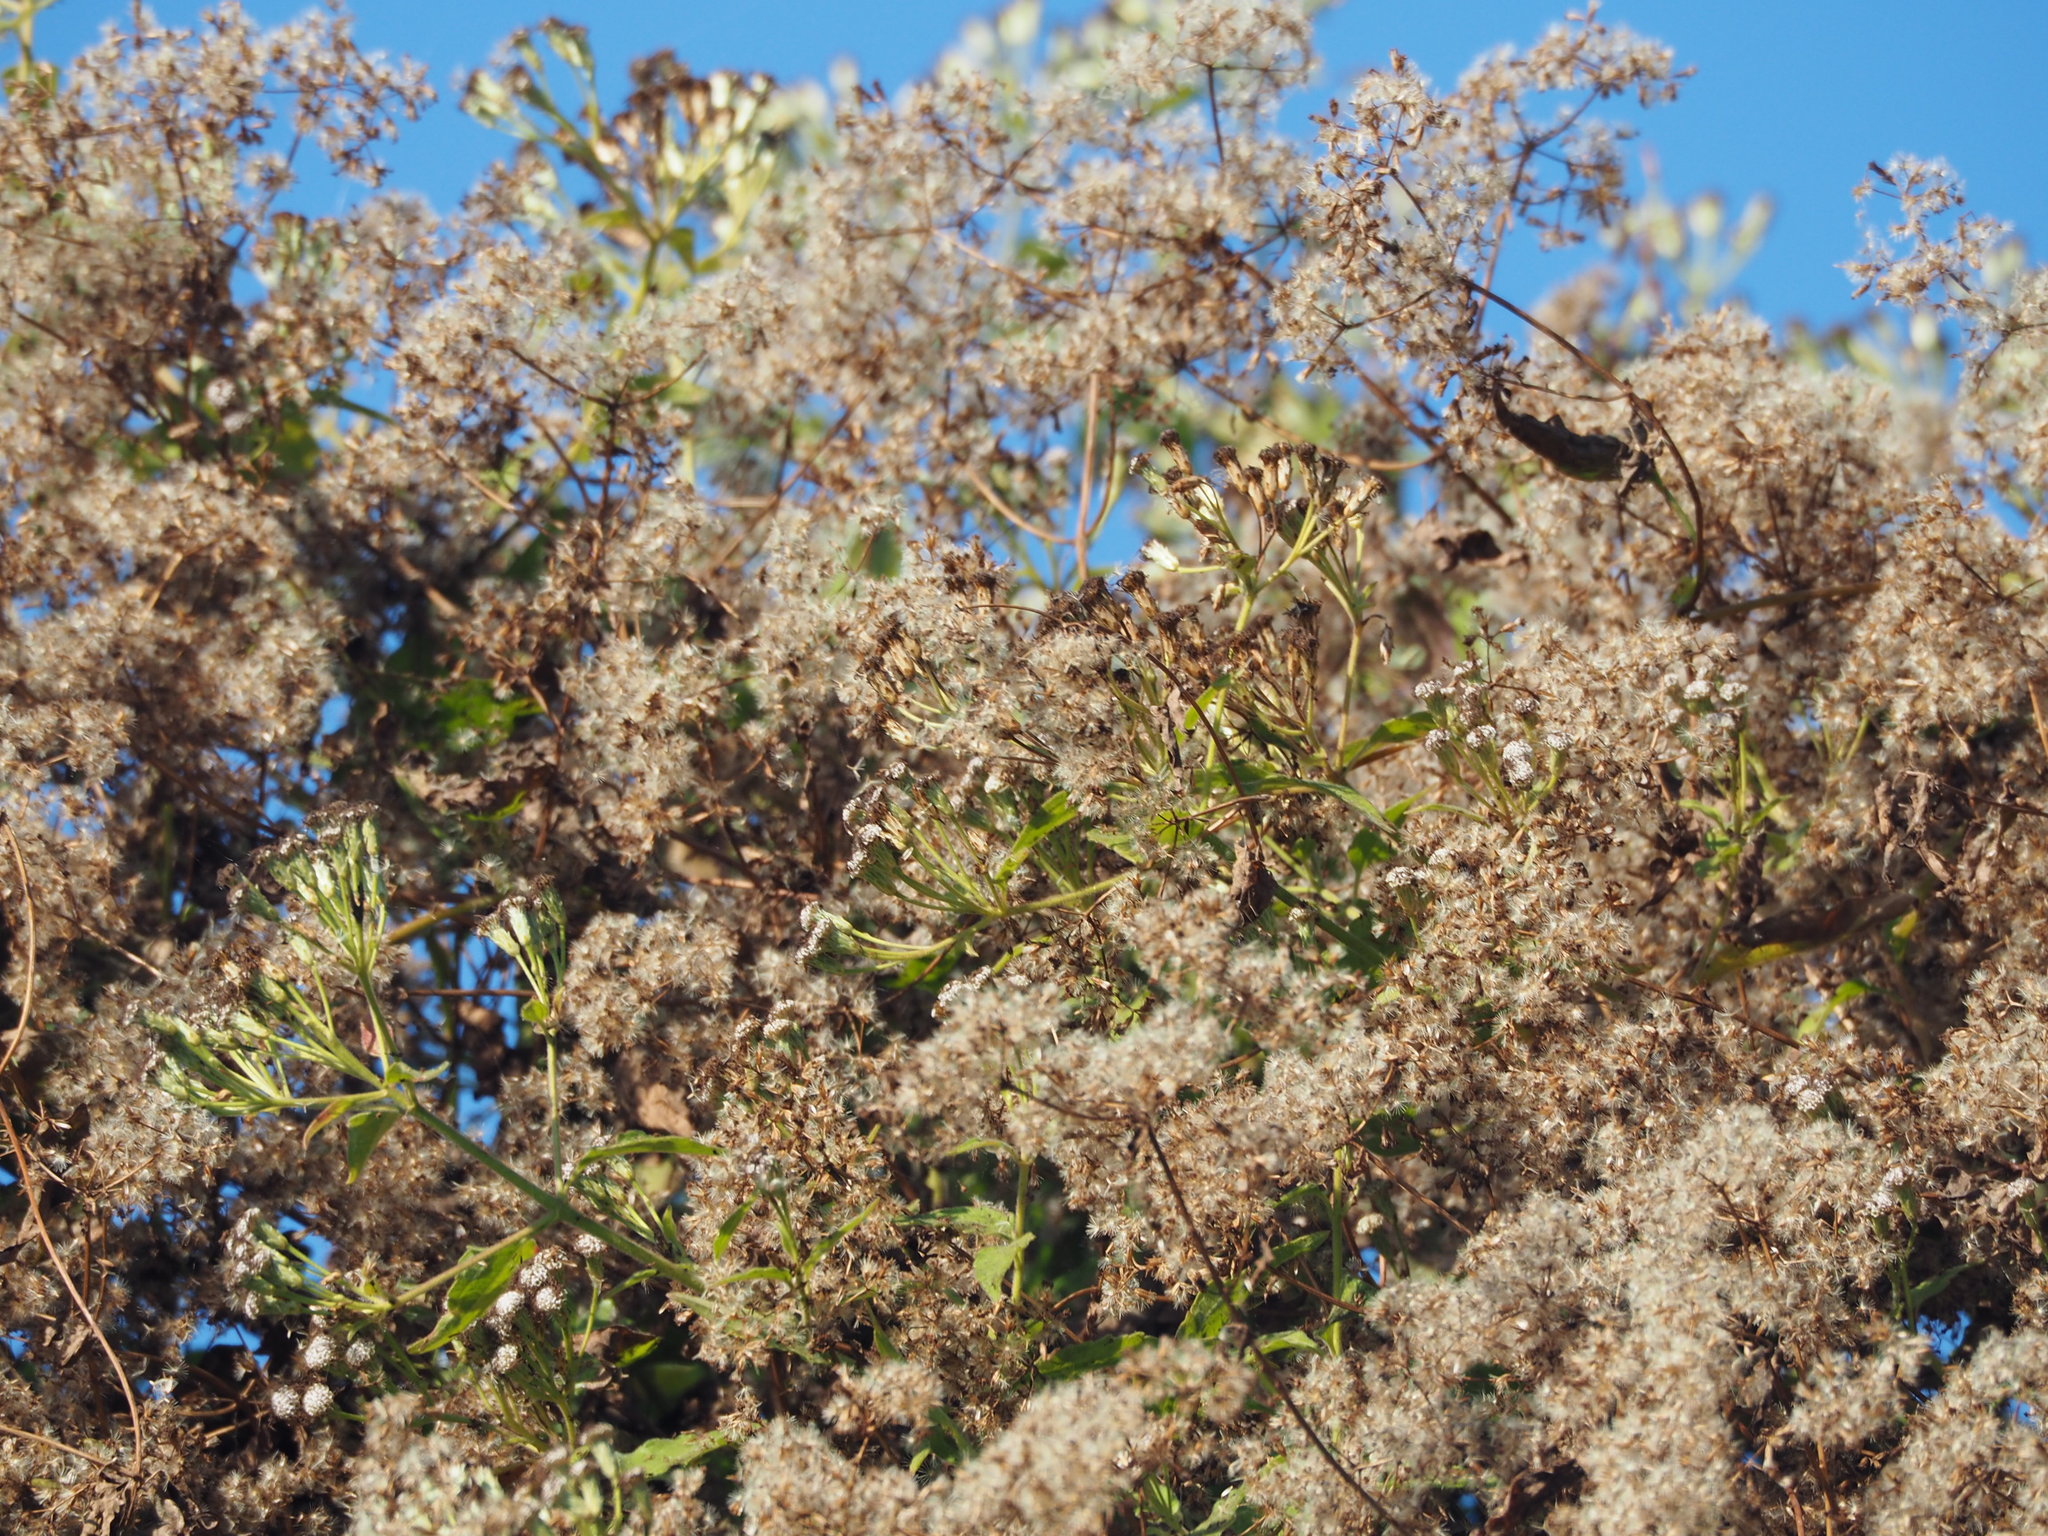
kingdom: Plantae
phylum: Tracheophyta
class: Magnoliopsida
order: Asterales
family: Asteraceae
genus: Mikania
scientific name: Mikania micrantha
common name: Mile-a-minute
